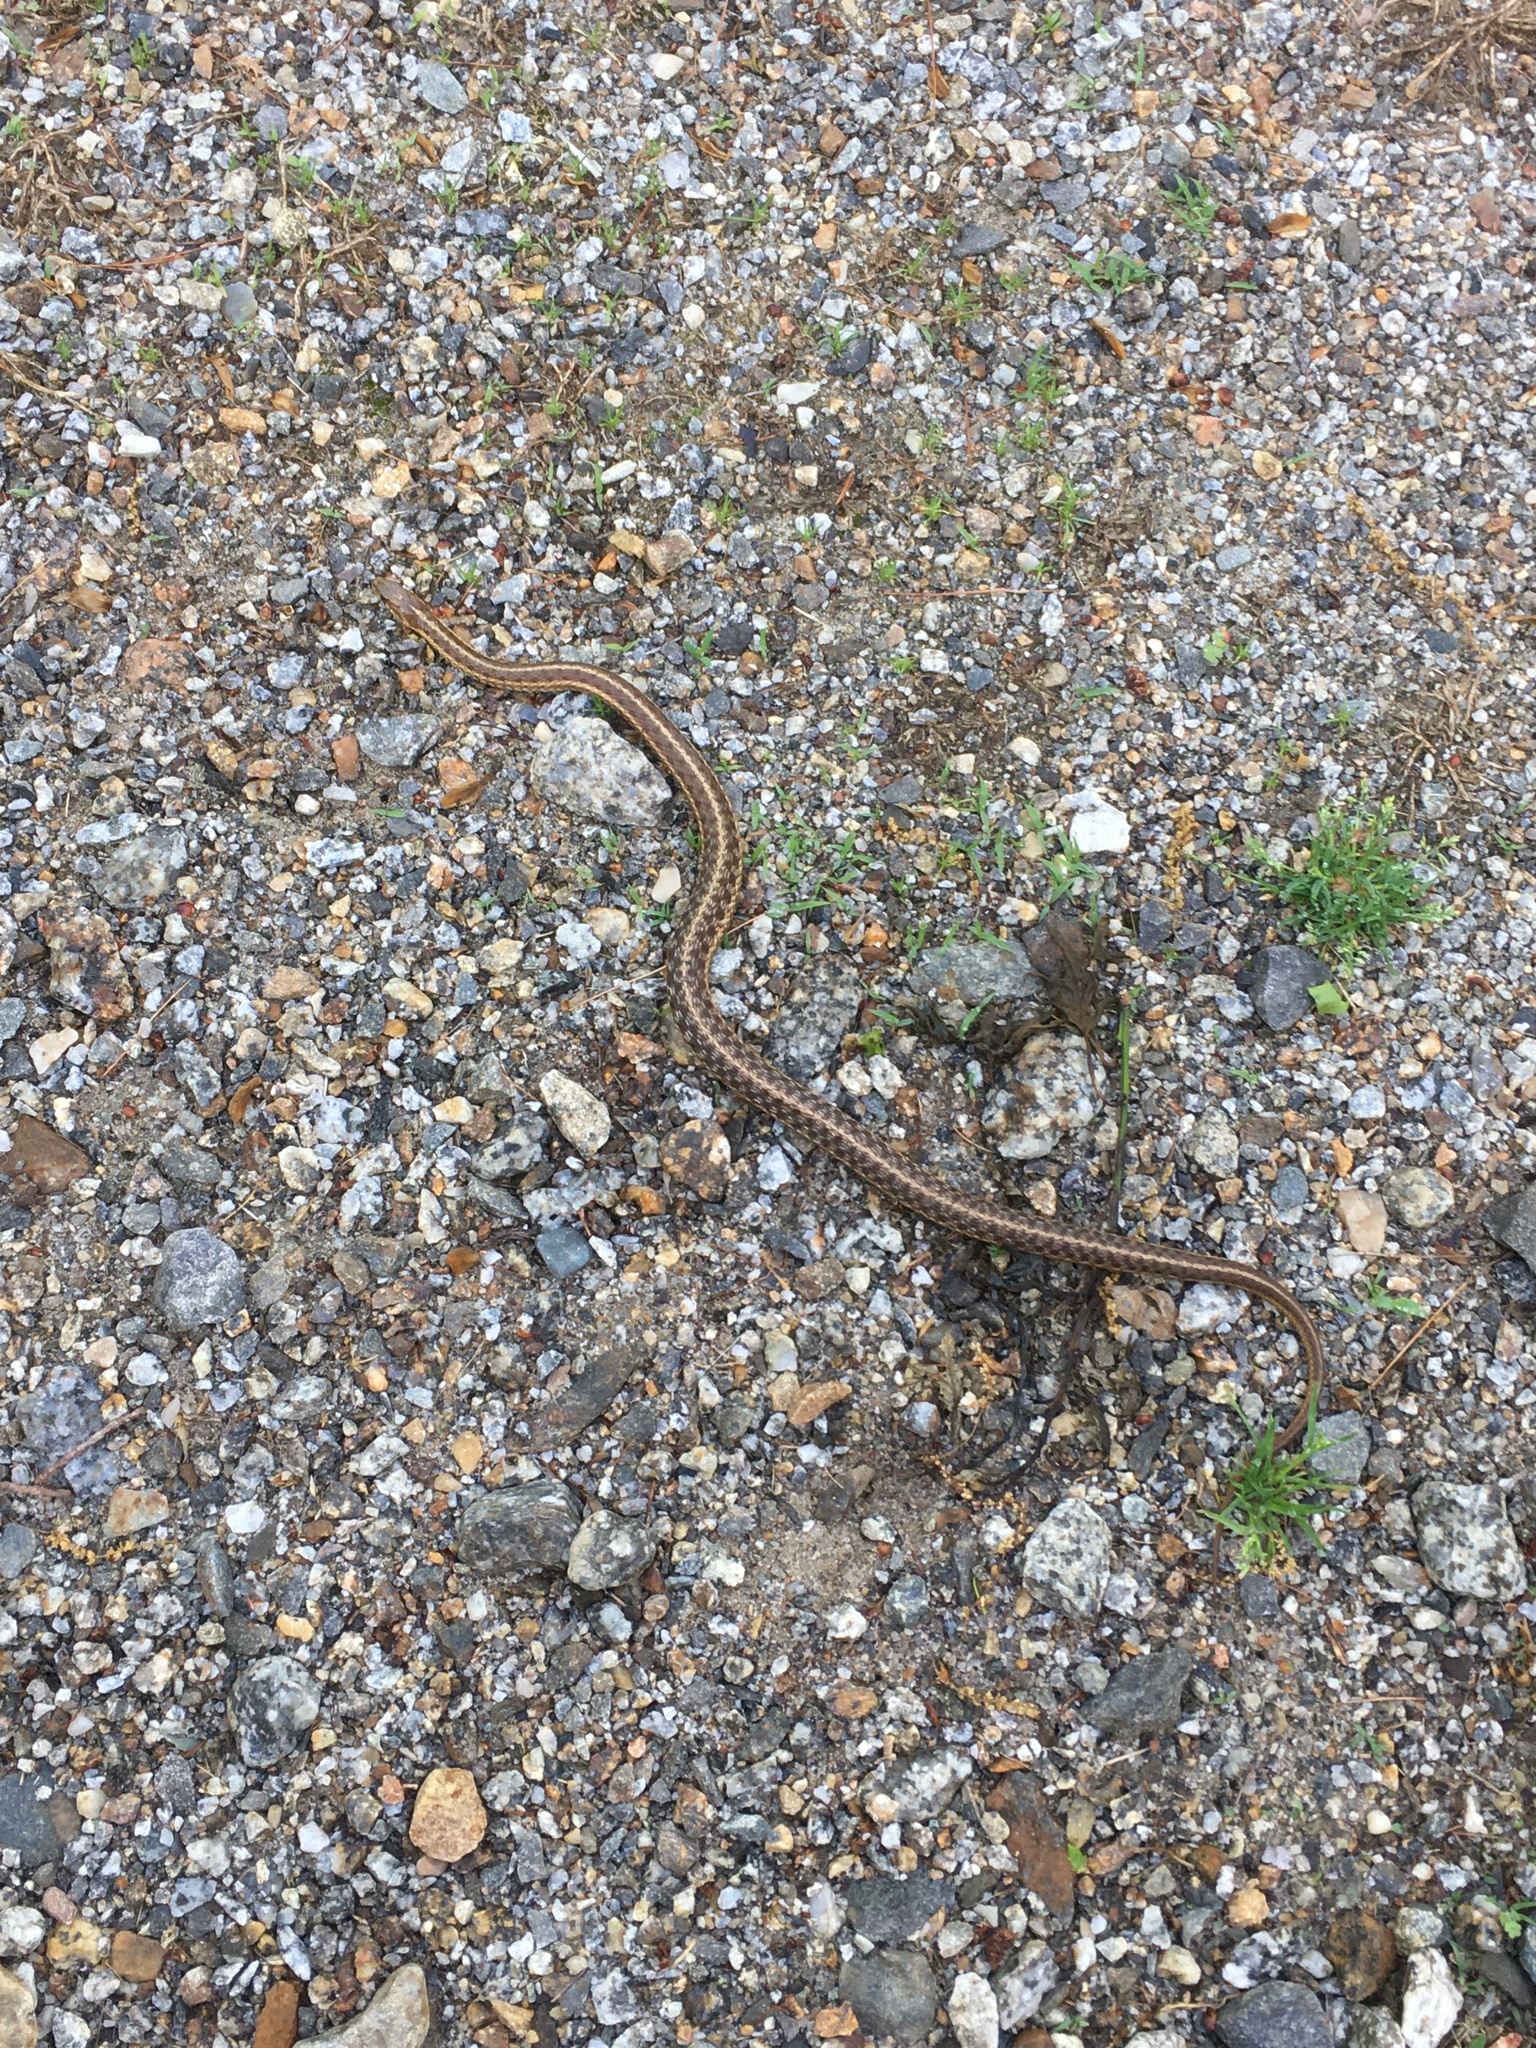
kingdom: Animalia
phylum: Chordata
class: Squamata
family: Colubridae
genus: Thamnophis
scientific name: Thamnophis sirtalis
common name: Common garter snake
